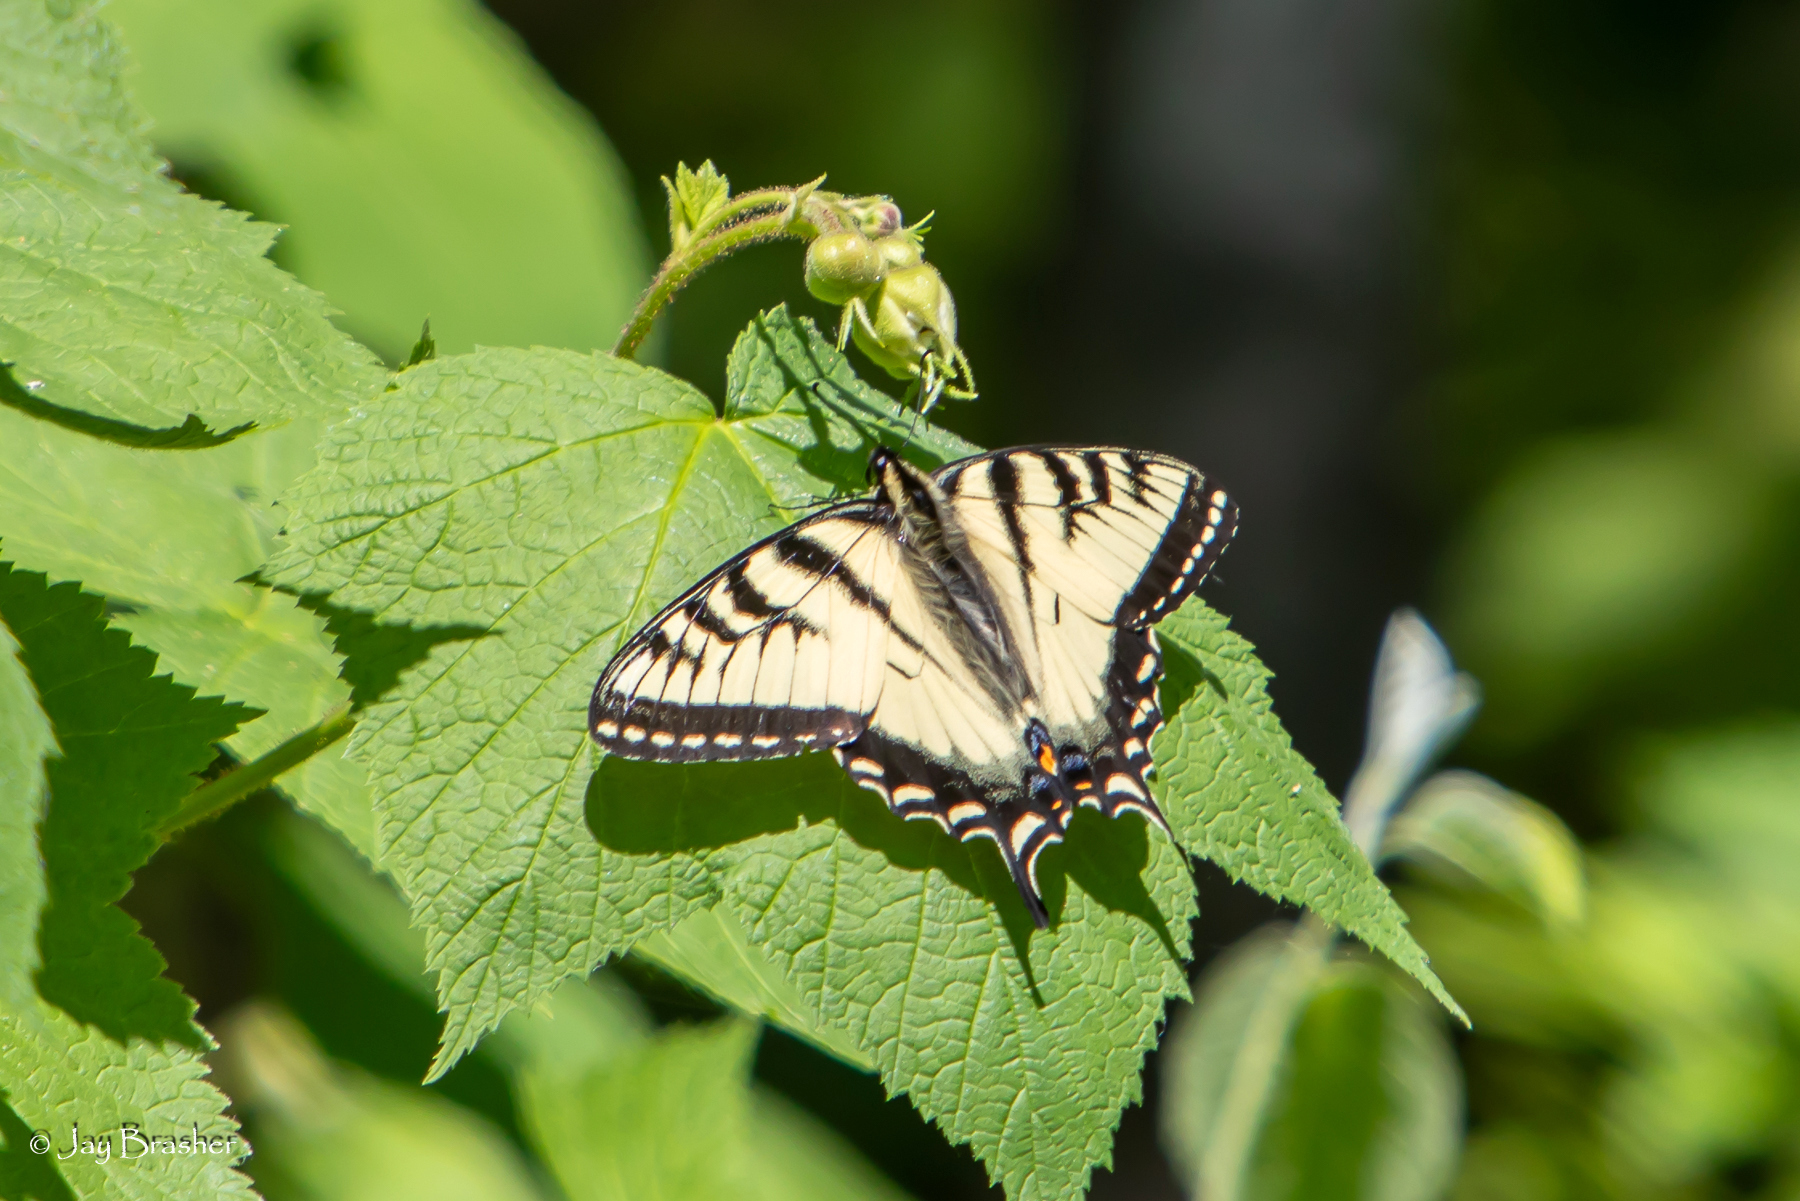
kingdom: Animalia
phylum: Arthropoda
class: Insecta
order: Lepidoptera
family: Papilionidae
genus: Papilio
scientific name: Papilio canadensis
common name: Canadian tiger swallowtail
